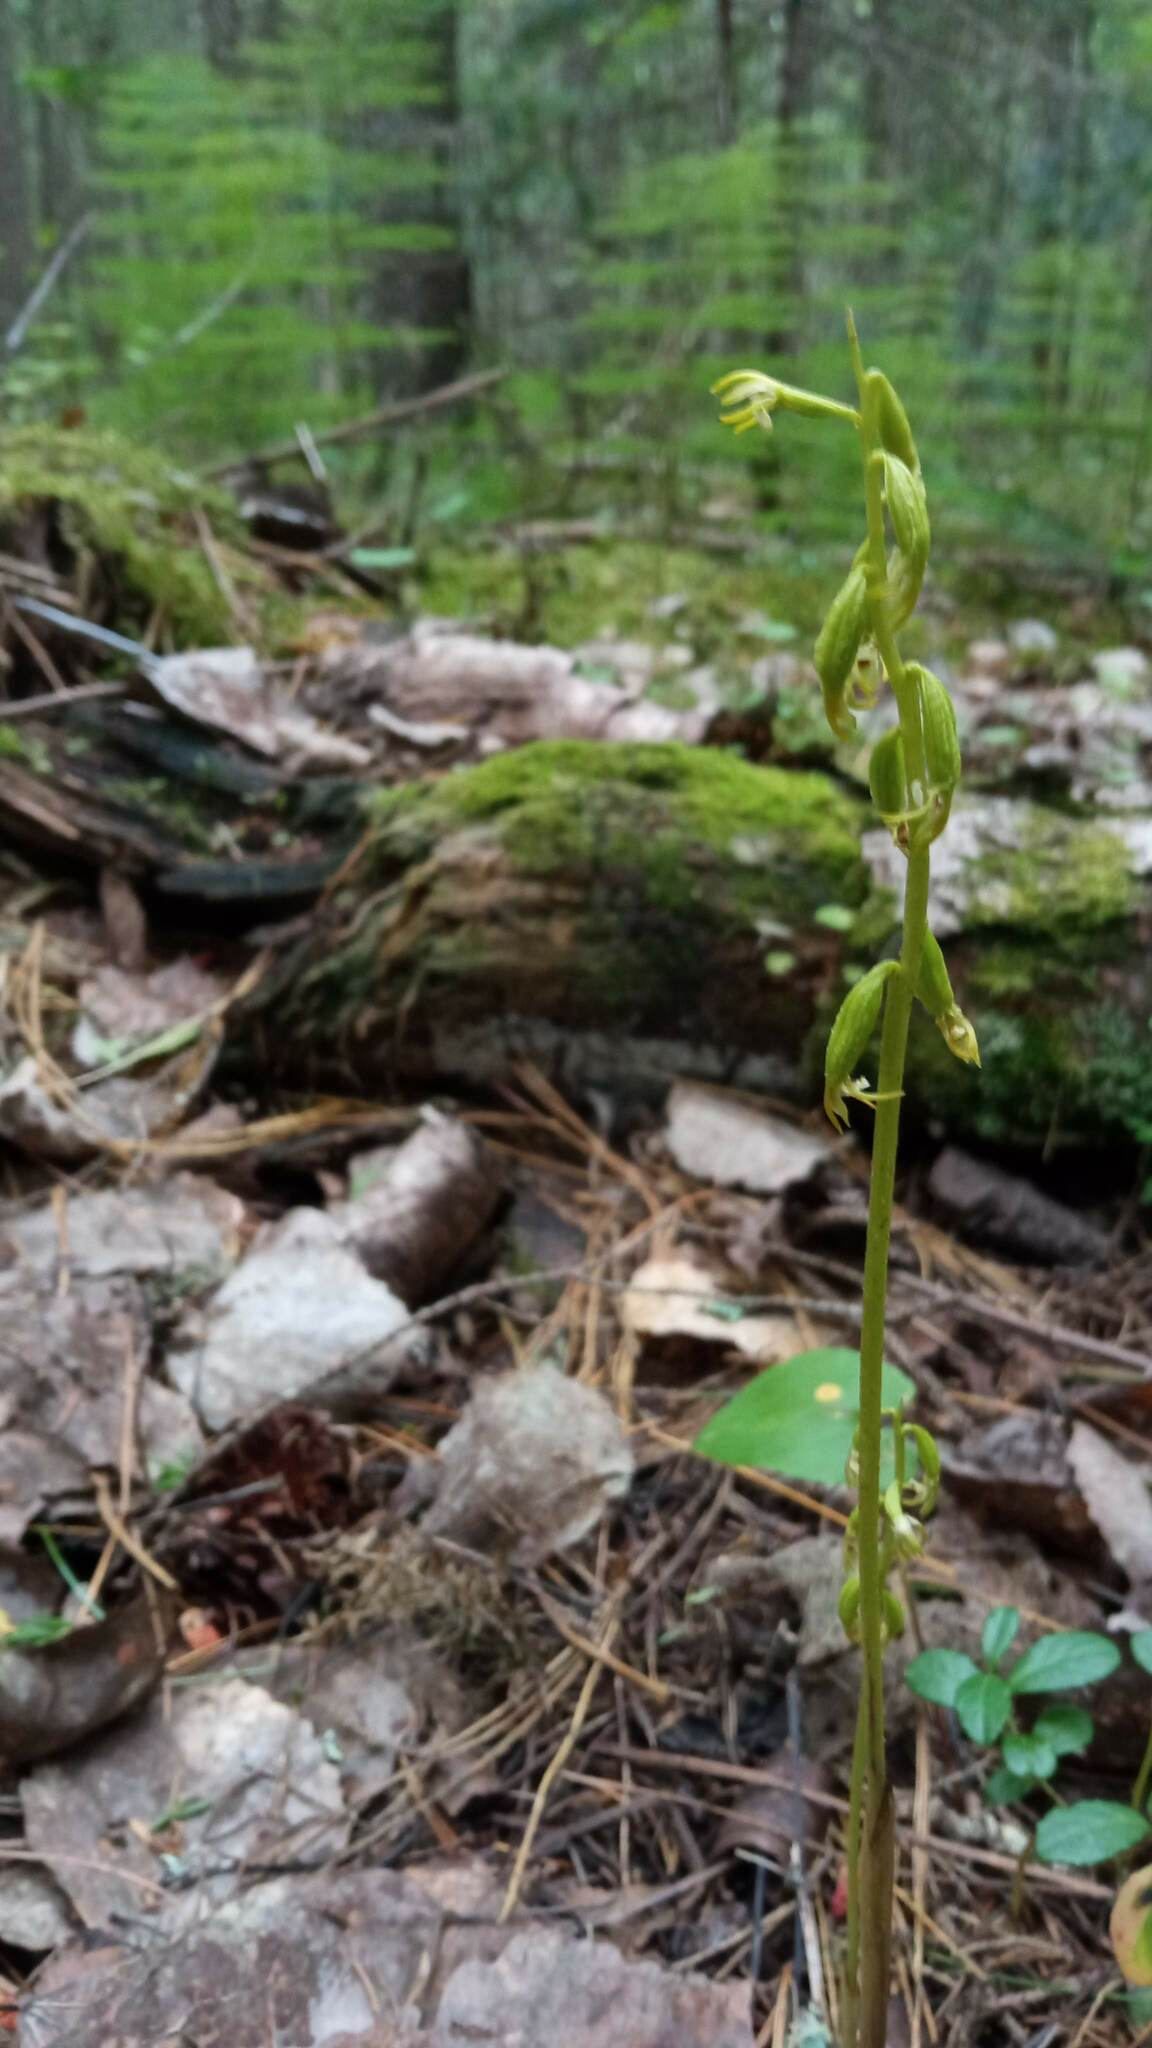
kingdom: Plantae
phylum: Tracheophyta
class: Liliopsida
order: Asparagales
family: Orchidaceae
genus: Corallorhiza
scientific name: Corallorhiza trifida
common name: Yellow coralroot
